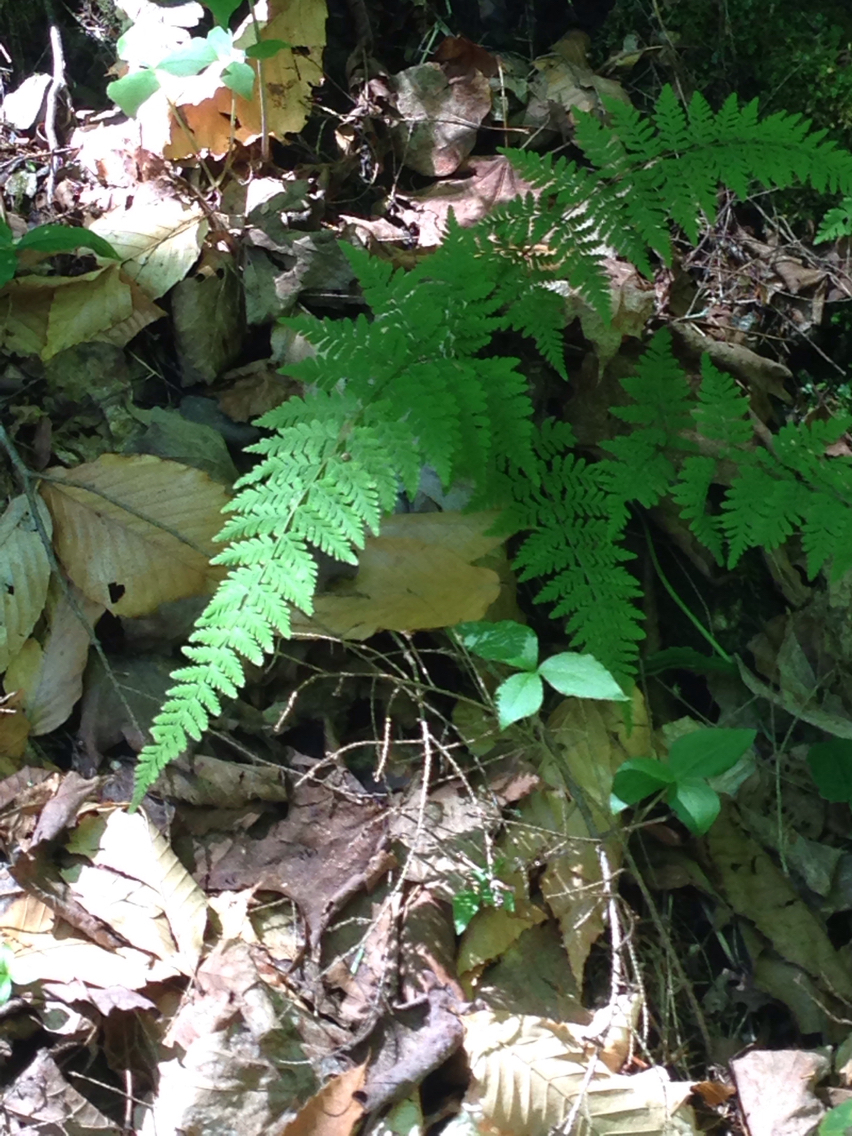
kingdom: Plantae
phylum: Tracheophyta
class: Polypodiopsida
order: Polypodiales
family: Cystopteridaceae
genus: Cystopteris
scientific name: Cystopteris bulbifera
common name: Bulblet bladder fern
